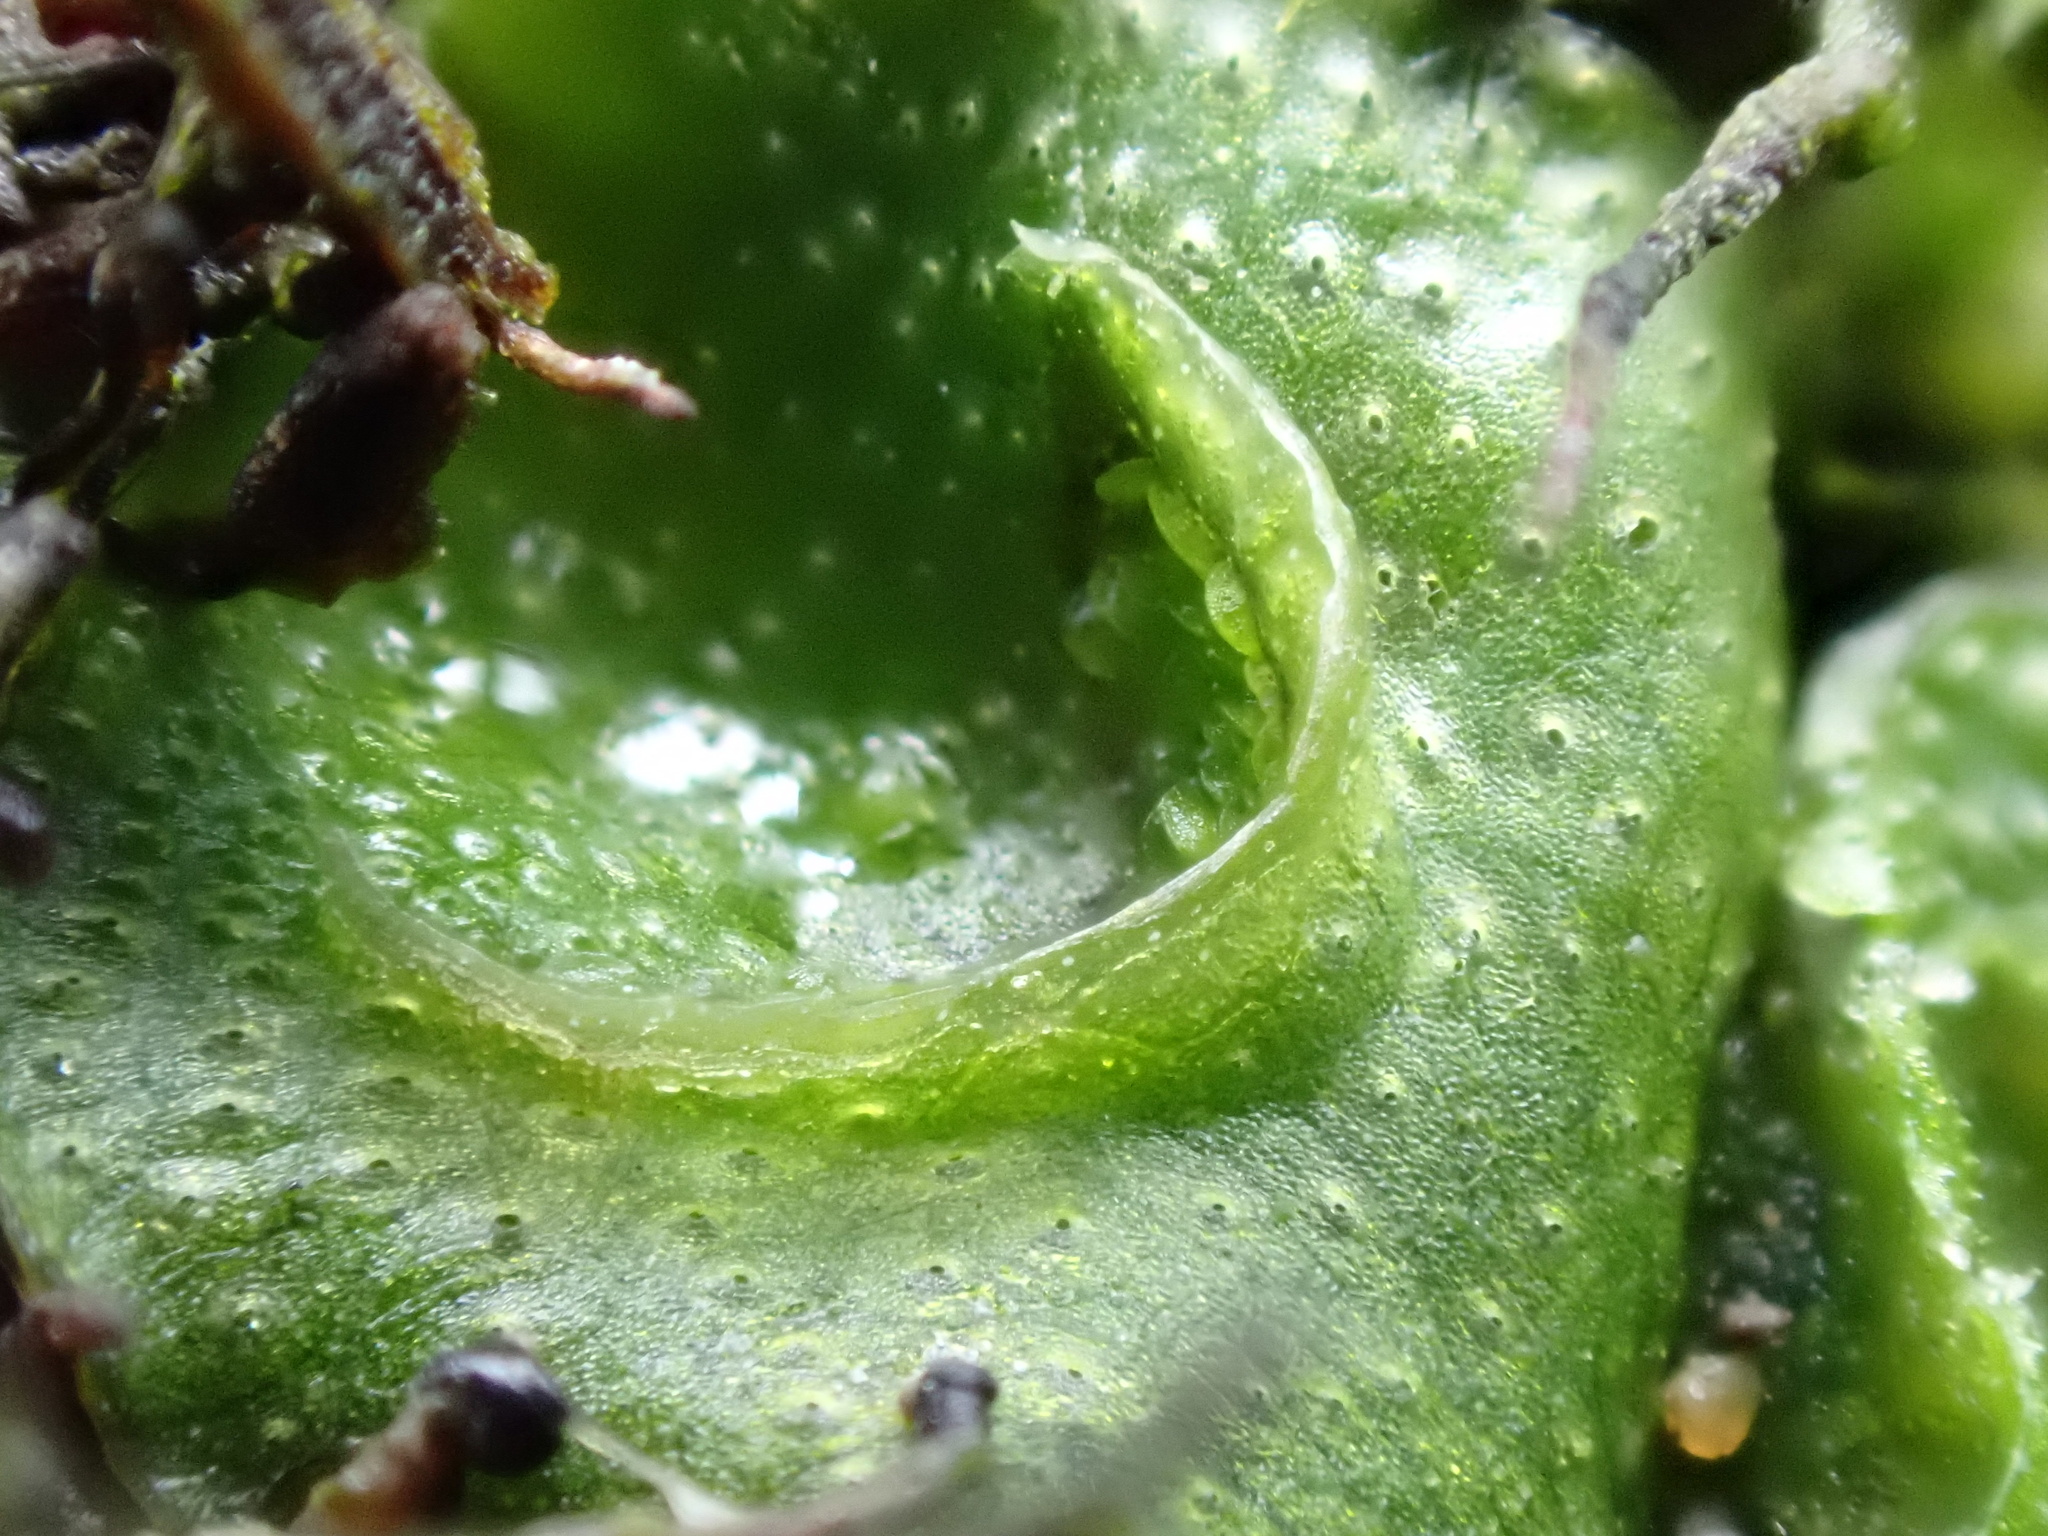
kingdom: Plantae
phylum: Marchantiophyta
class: Marchantiopsida
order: Lunulariales
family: Lunulariaceae
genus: Lunularia
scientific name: Lunularia cruciata
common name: Crescent-cup liverwort
